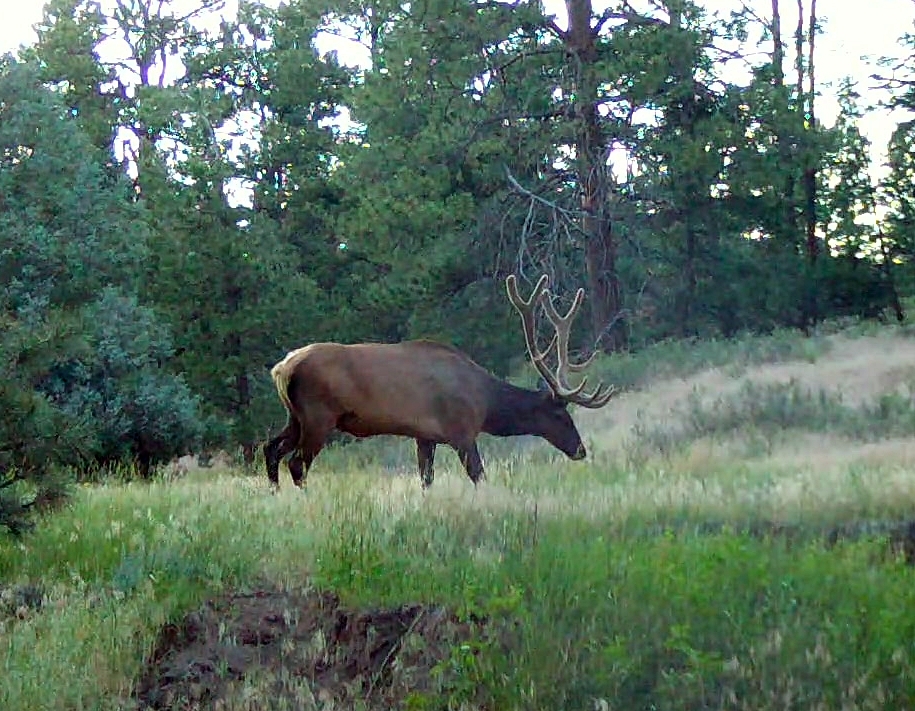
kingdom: Animalia
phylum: Chordata
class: Mammalia
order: Artiodactyla
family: Cervidae
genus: Cervus
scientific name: Cervus elaphus
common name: Red deer
